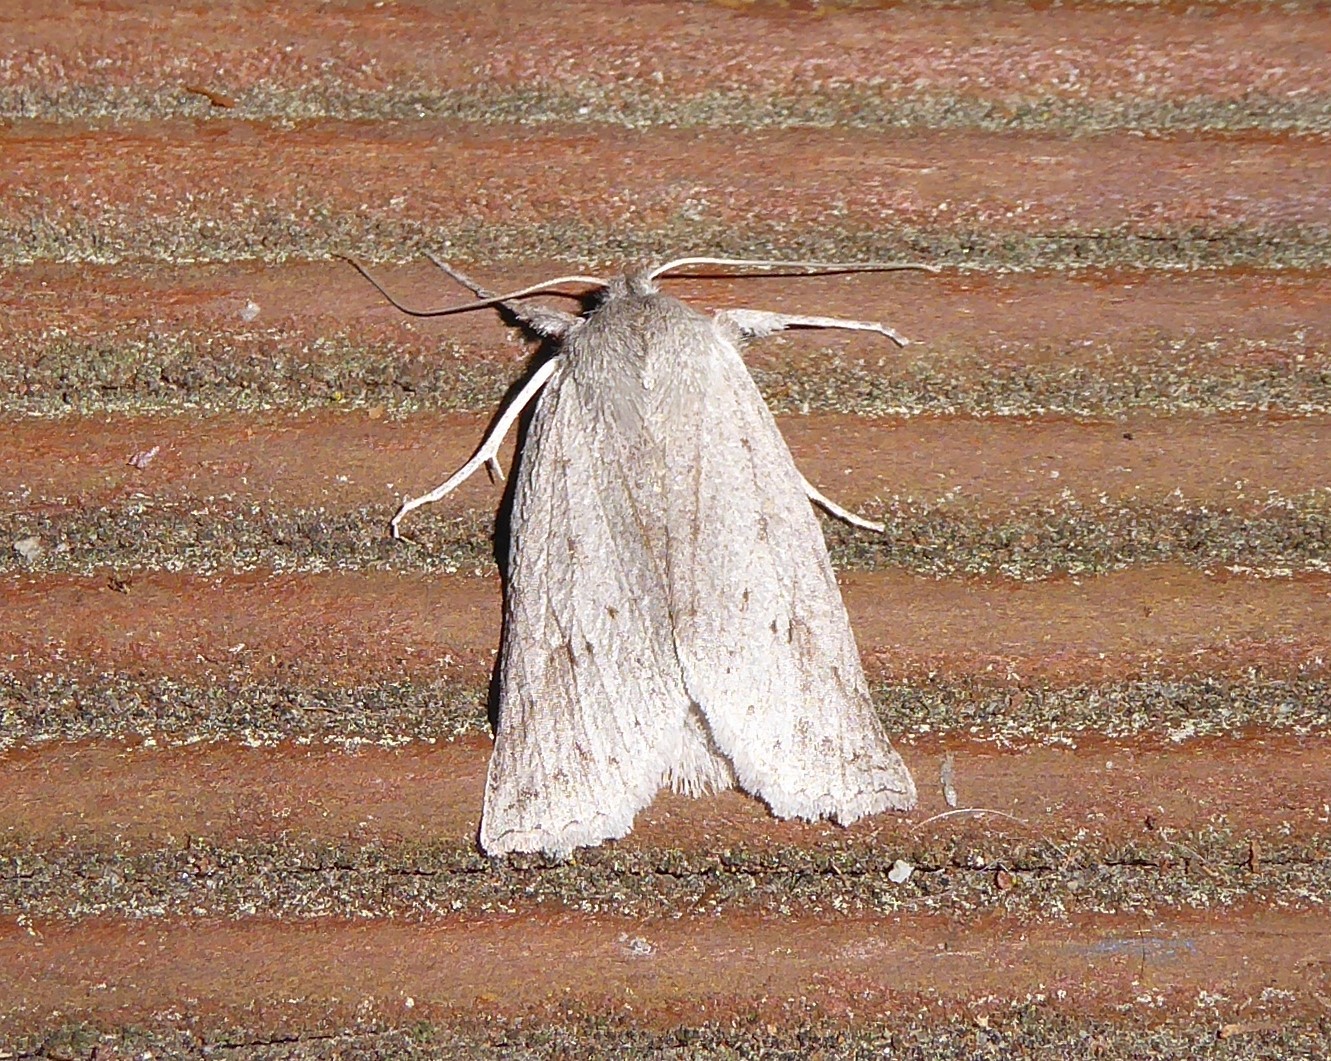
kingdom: Animalia
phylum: Arthropoda
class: Insecta
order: Lepidoptera
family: Geometridae
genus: Declana
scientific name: Declana leptomera
